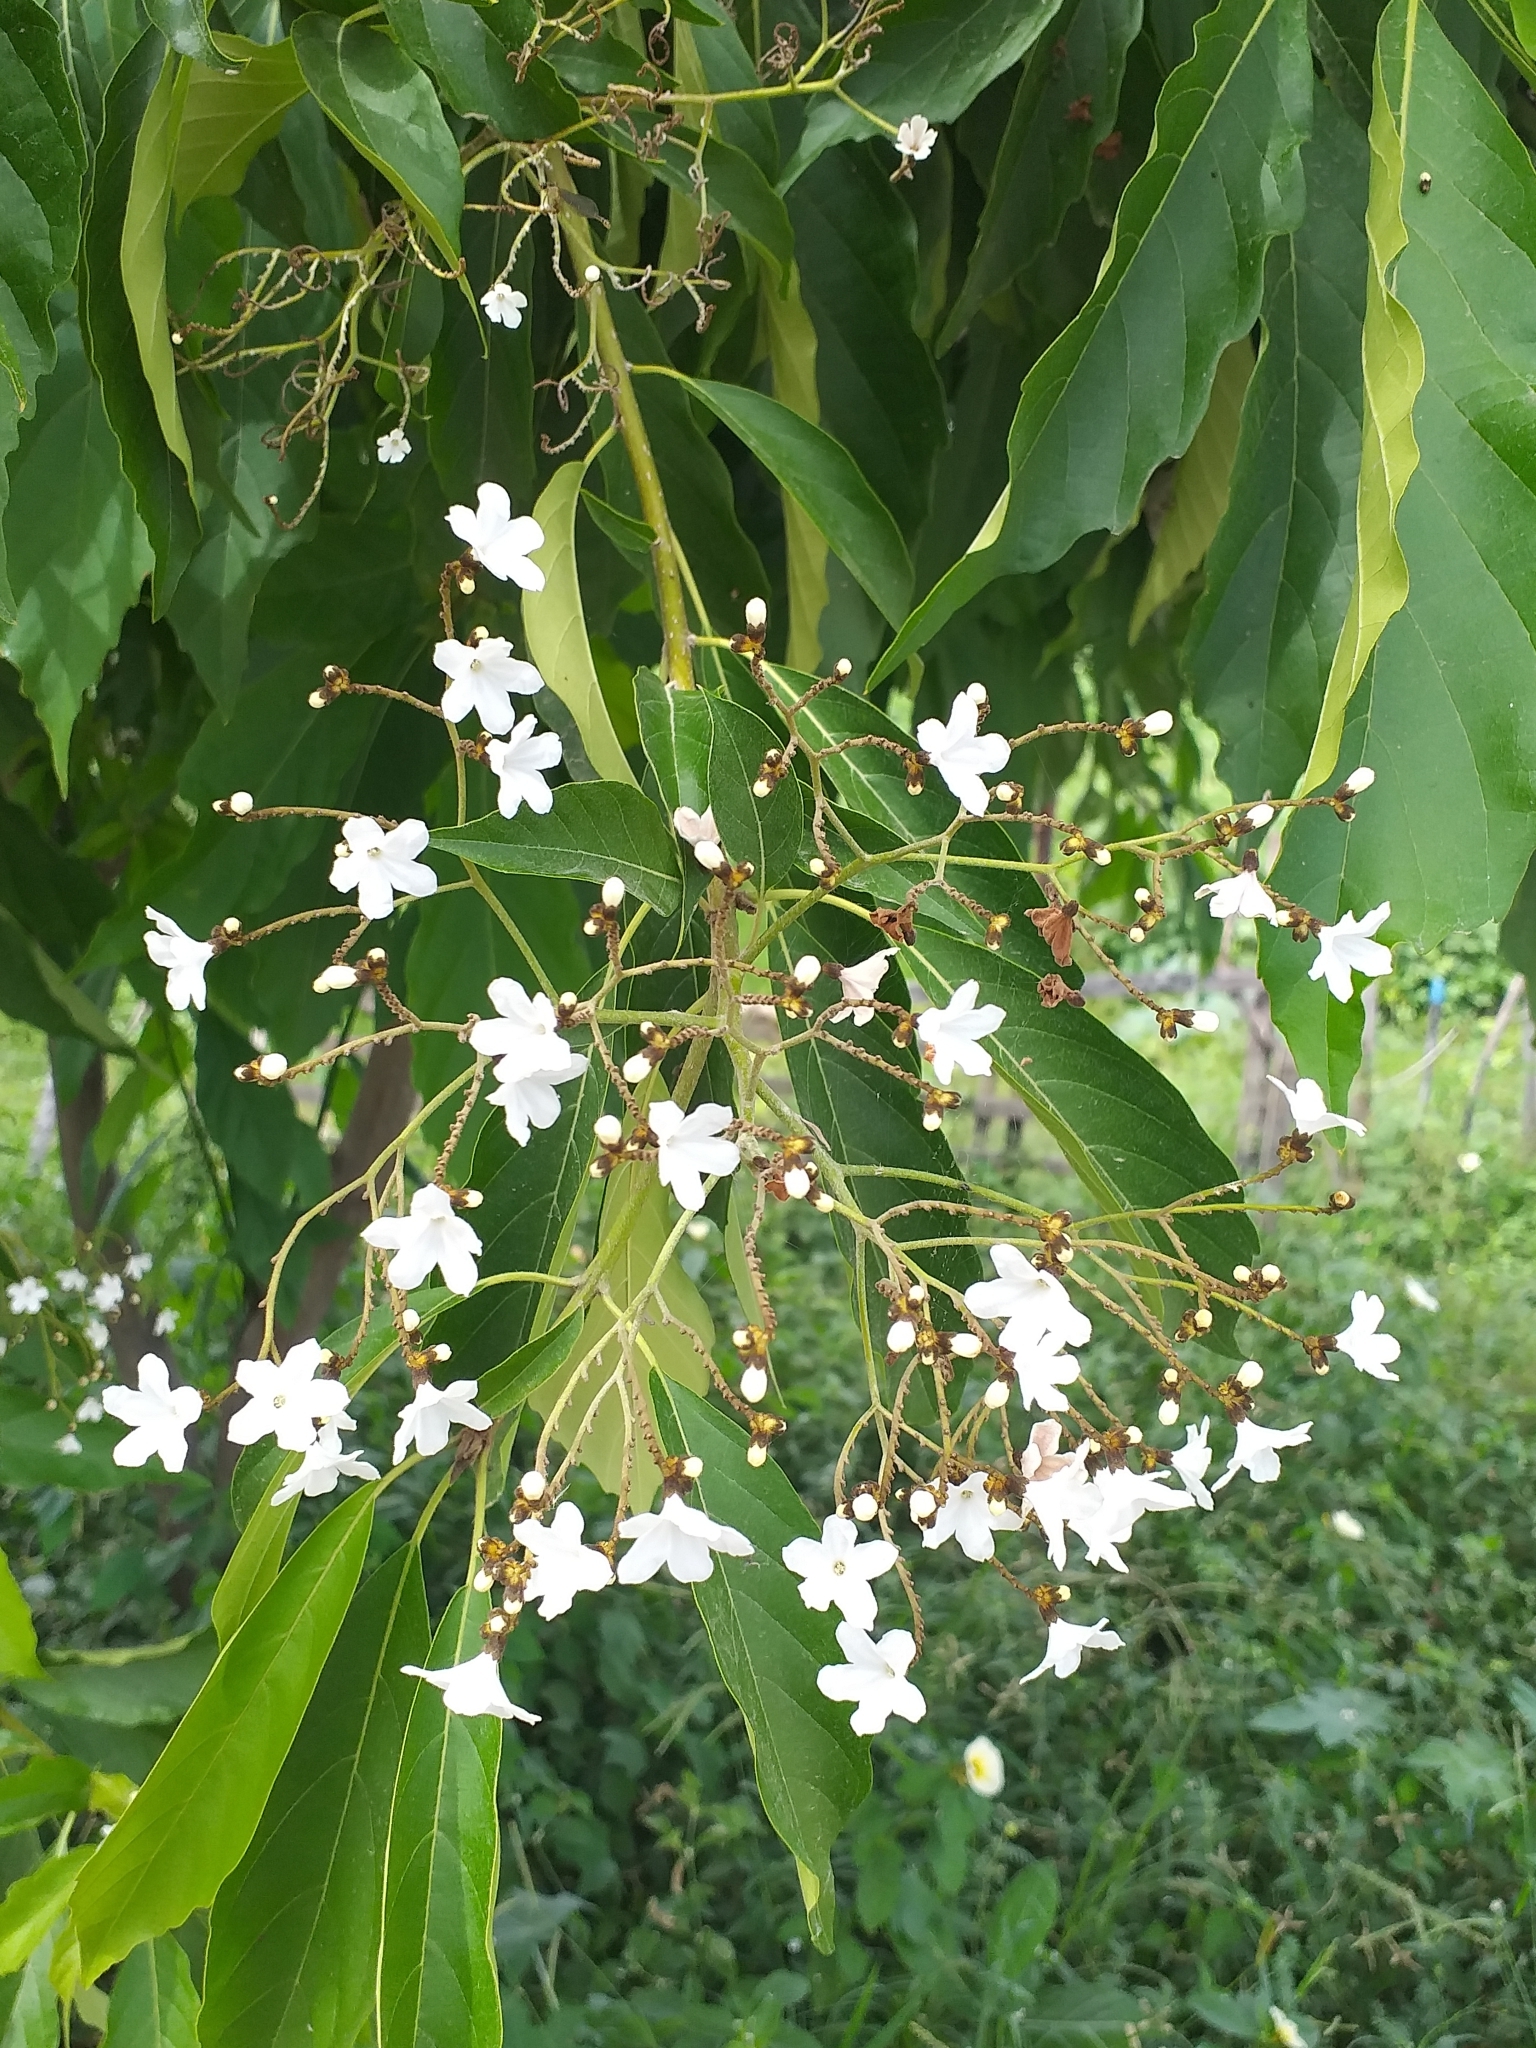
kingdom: Plantae
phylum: Tracheophyta
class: Magnoliopsida
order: Boraginales
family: Cordiaceae
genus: Cordia
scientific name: Cordia oncocalyx
